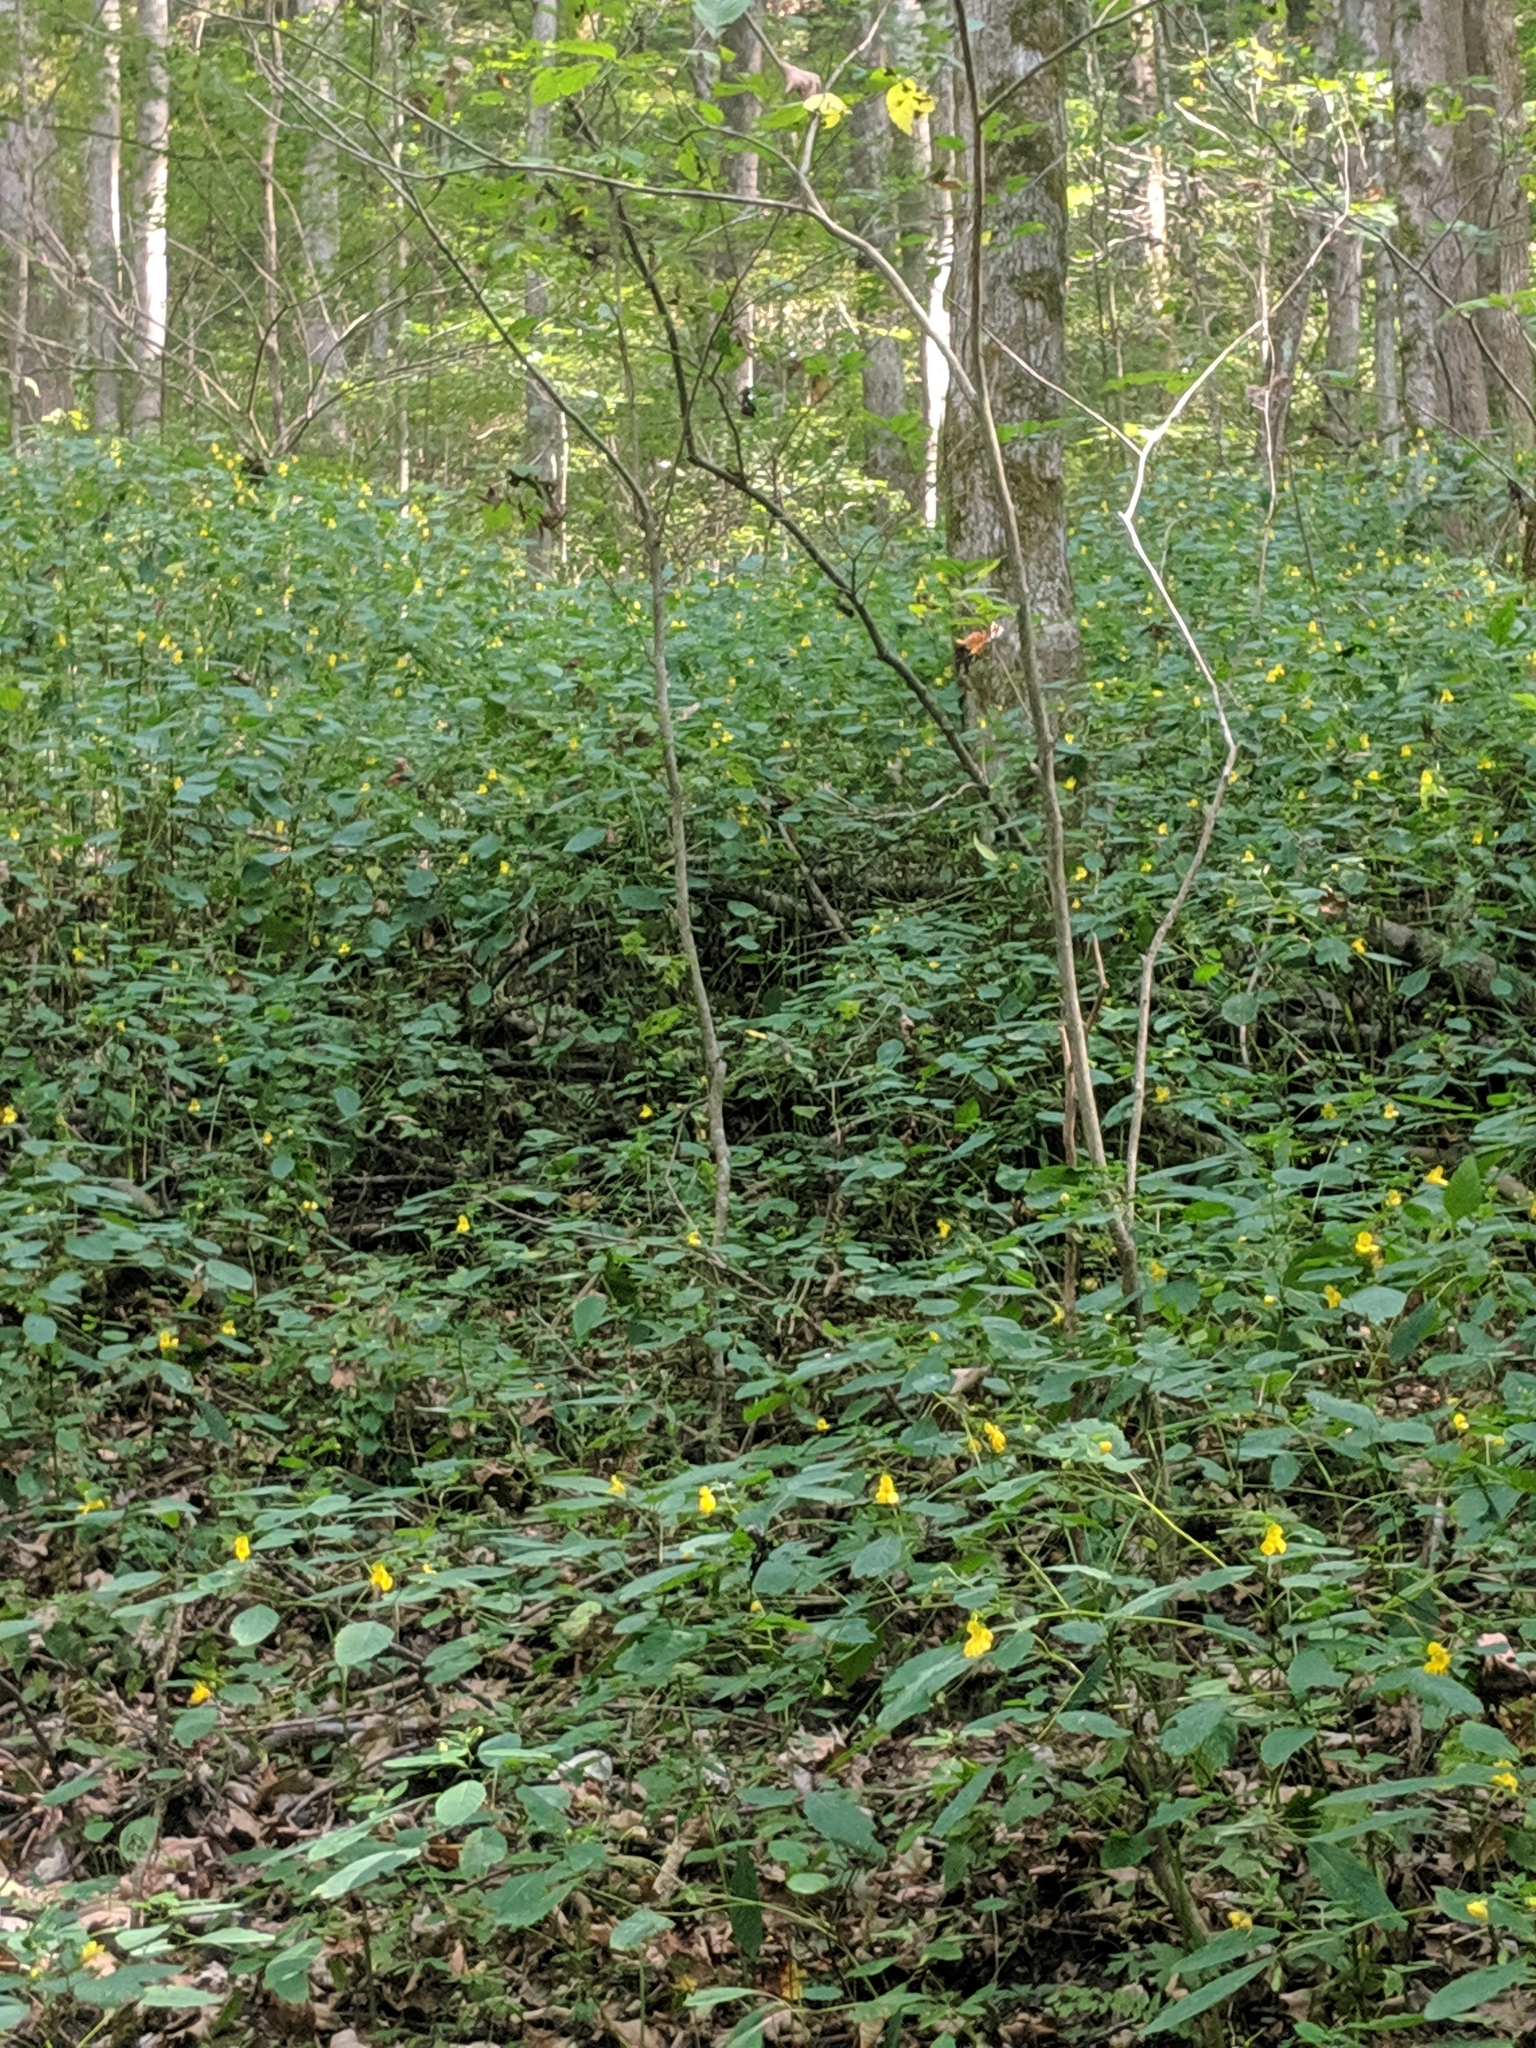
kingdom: Plantae
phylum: Tracheophyta
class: Magnoliopsida
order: Ericales
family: Balsaminaceae
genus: Impatiens
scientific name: Impatiens pallida
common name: Pale snapweed
